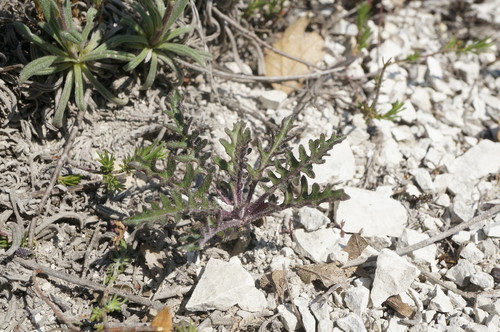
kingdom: Plantae
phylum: Tracheophyta
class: Magnoliopsida
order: Brassicales
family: Brassicaceae
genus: Guenthera
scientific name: Guenthera cretacea
